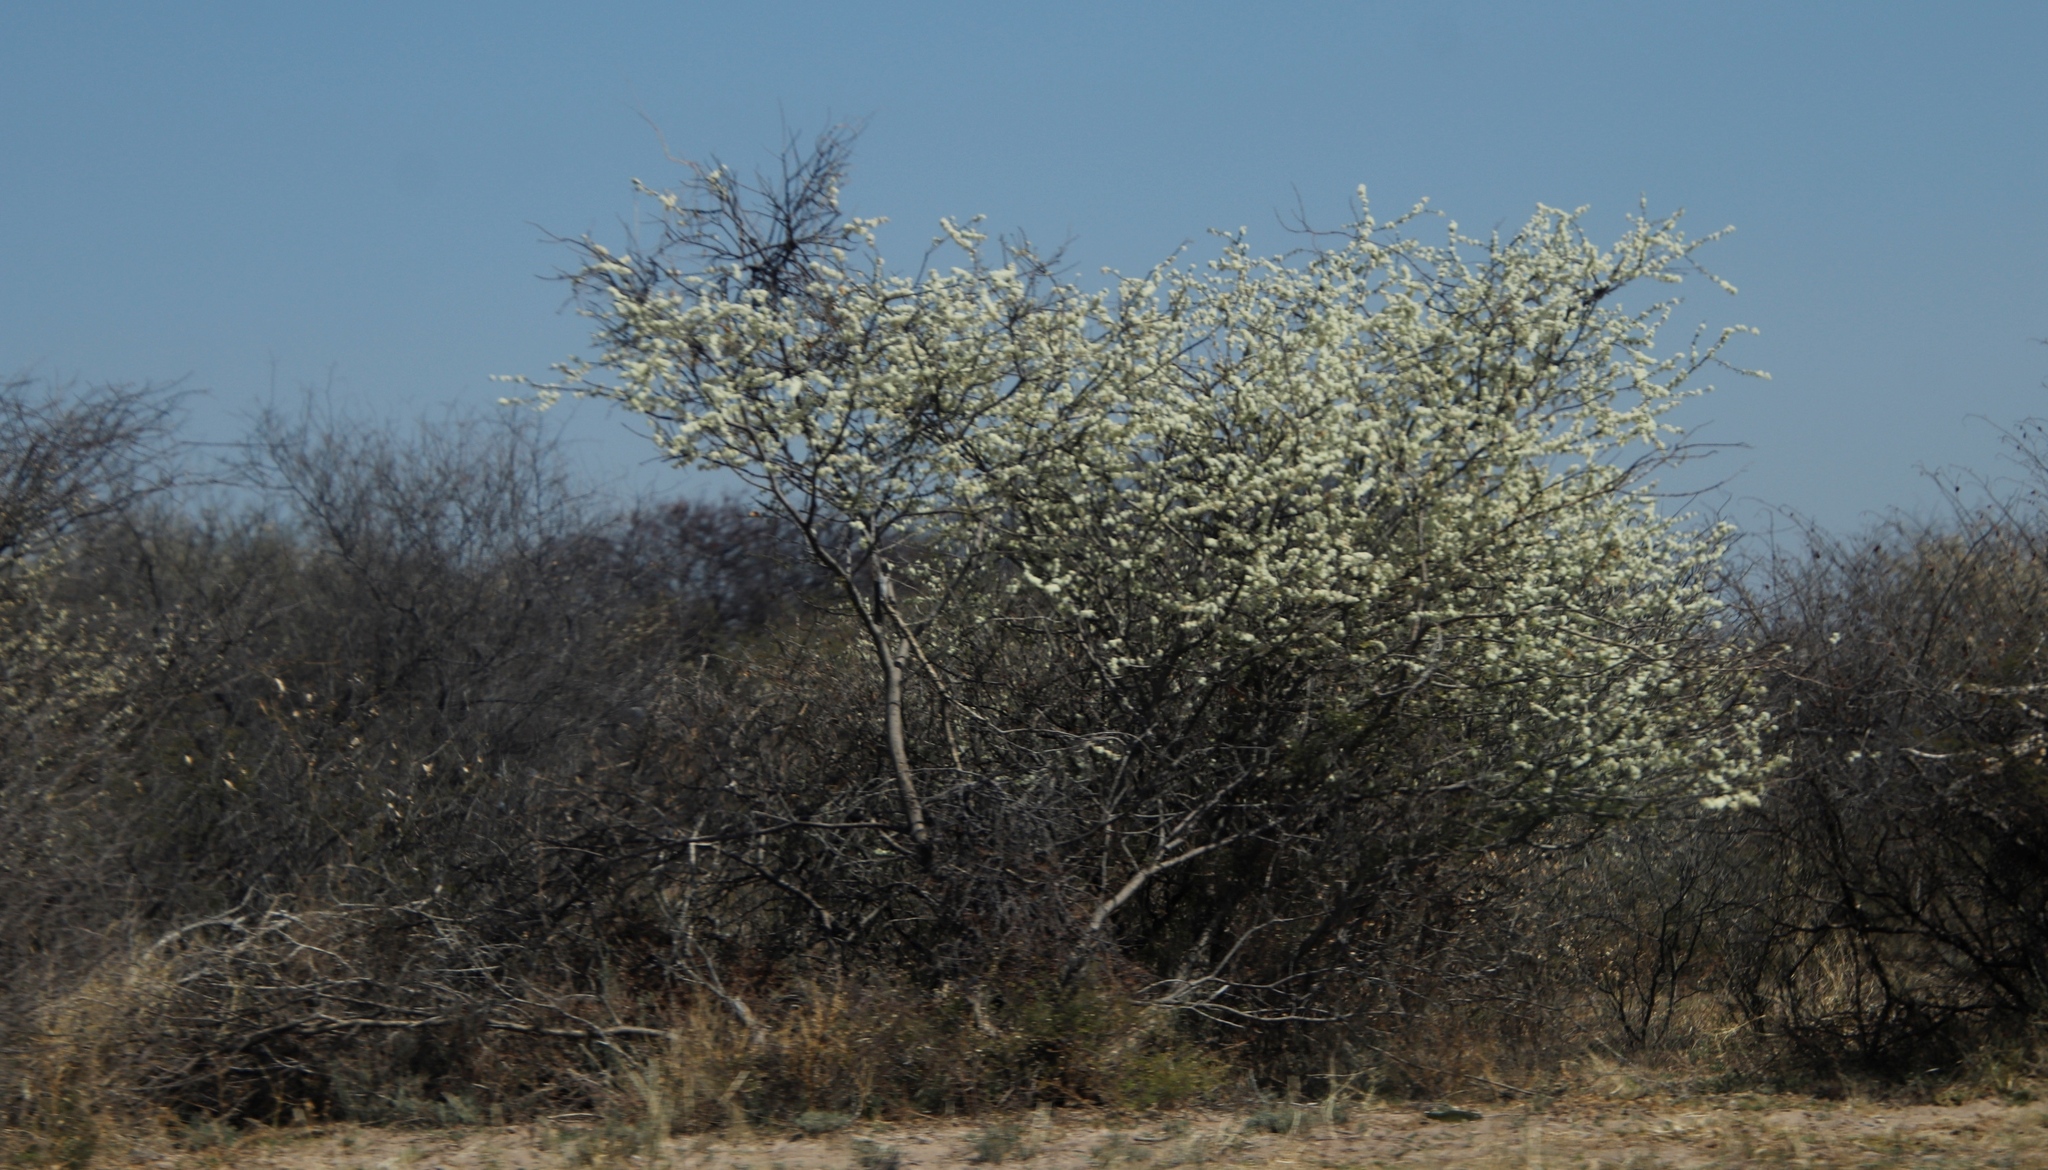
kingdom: Plantae
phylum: Tracheophyta
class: Magnoliopsida
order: Fabales
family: Fabaceae
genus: Senegalia
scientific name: Senegalia mellifera
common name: Hookthorn
